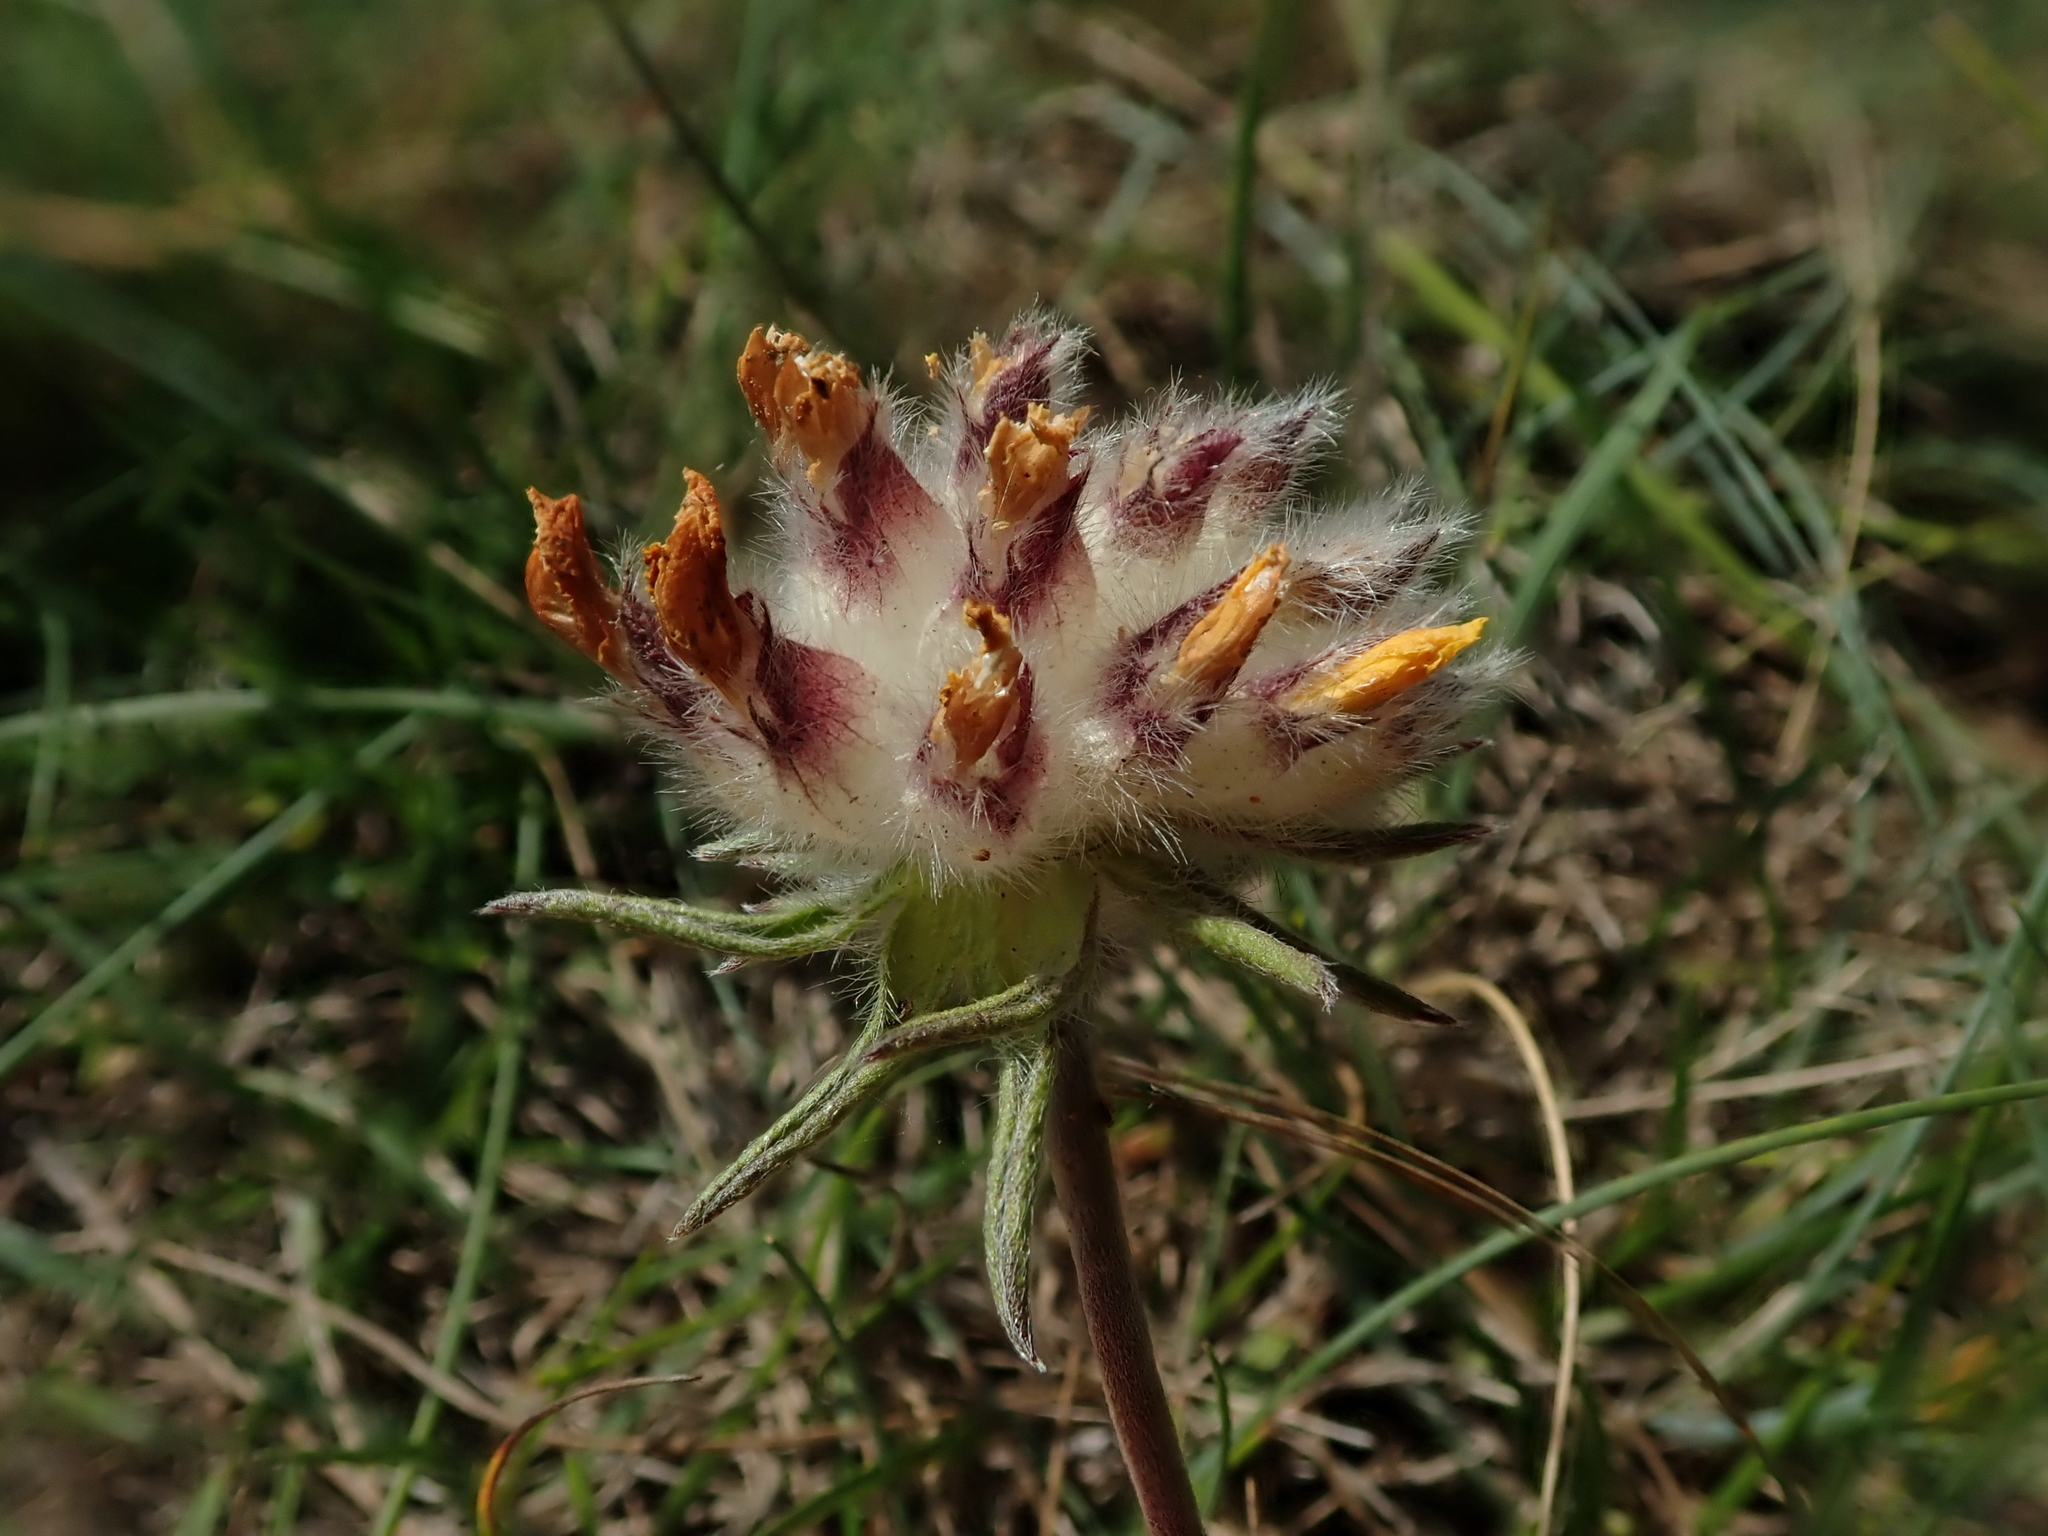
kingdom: Plantae
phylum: Tracheophyta
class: Magnoliopsida
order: Fabales
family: Fabaceae
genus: Anthyllis
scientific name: Anthyllis vulneraria
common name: Kidney vetch
